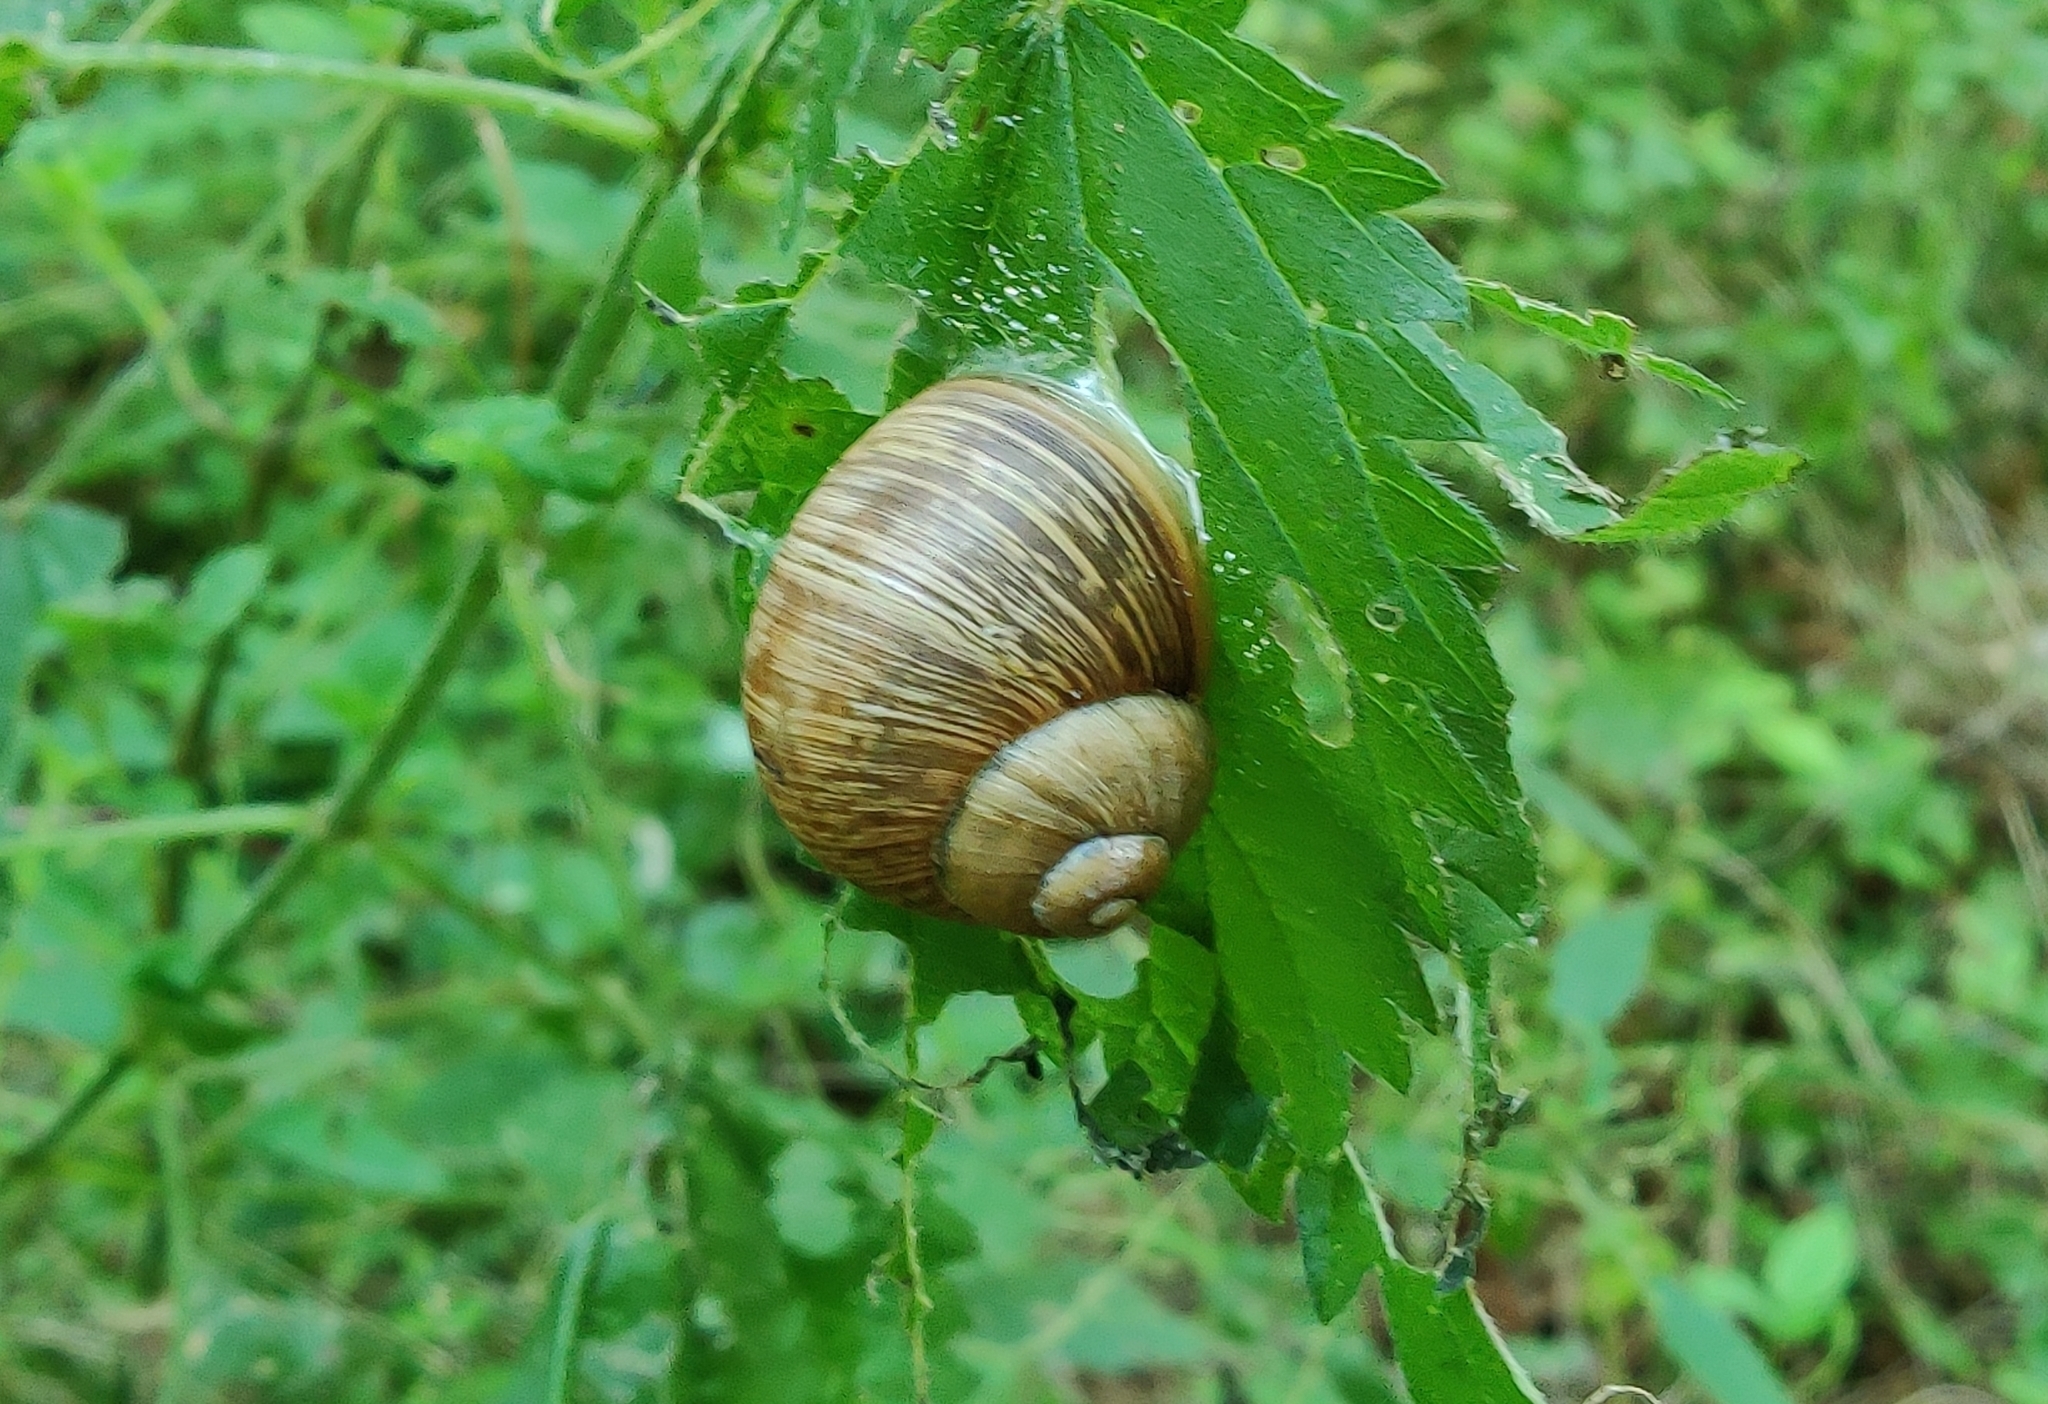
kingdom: Animalia
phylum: Mollusca
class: Gastropoda
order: Stylommatophora
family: Helicidae
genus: Helix
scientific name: Helix pomatia
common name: Roman snail
